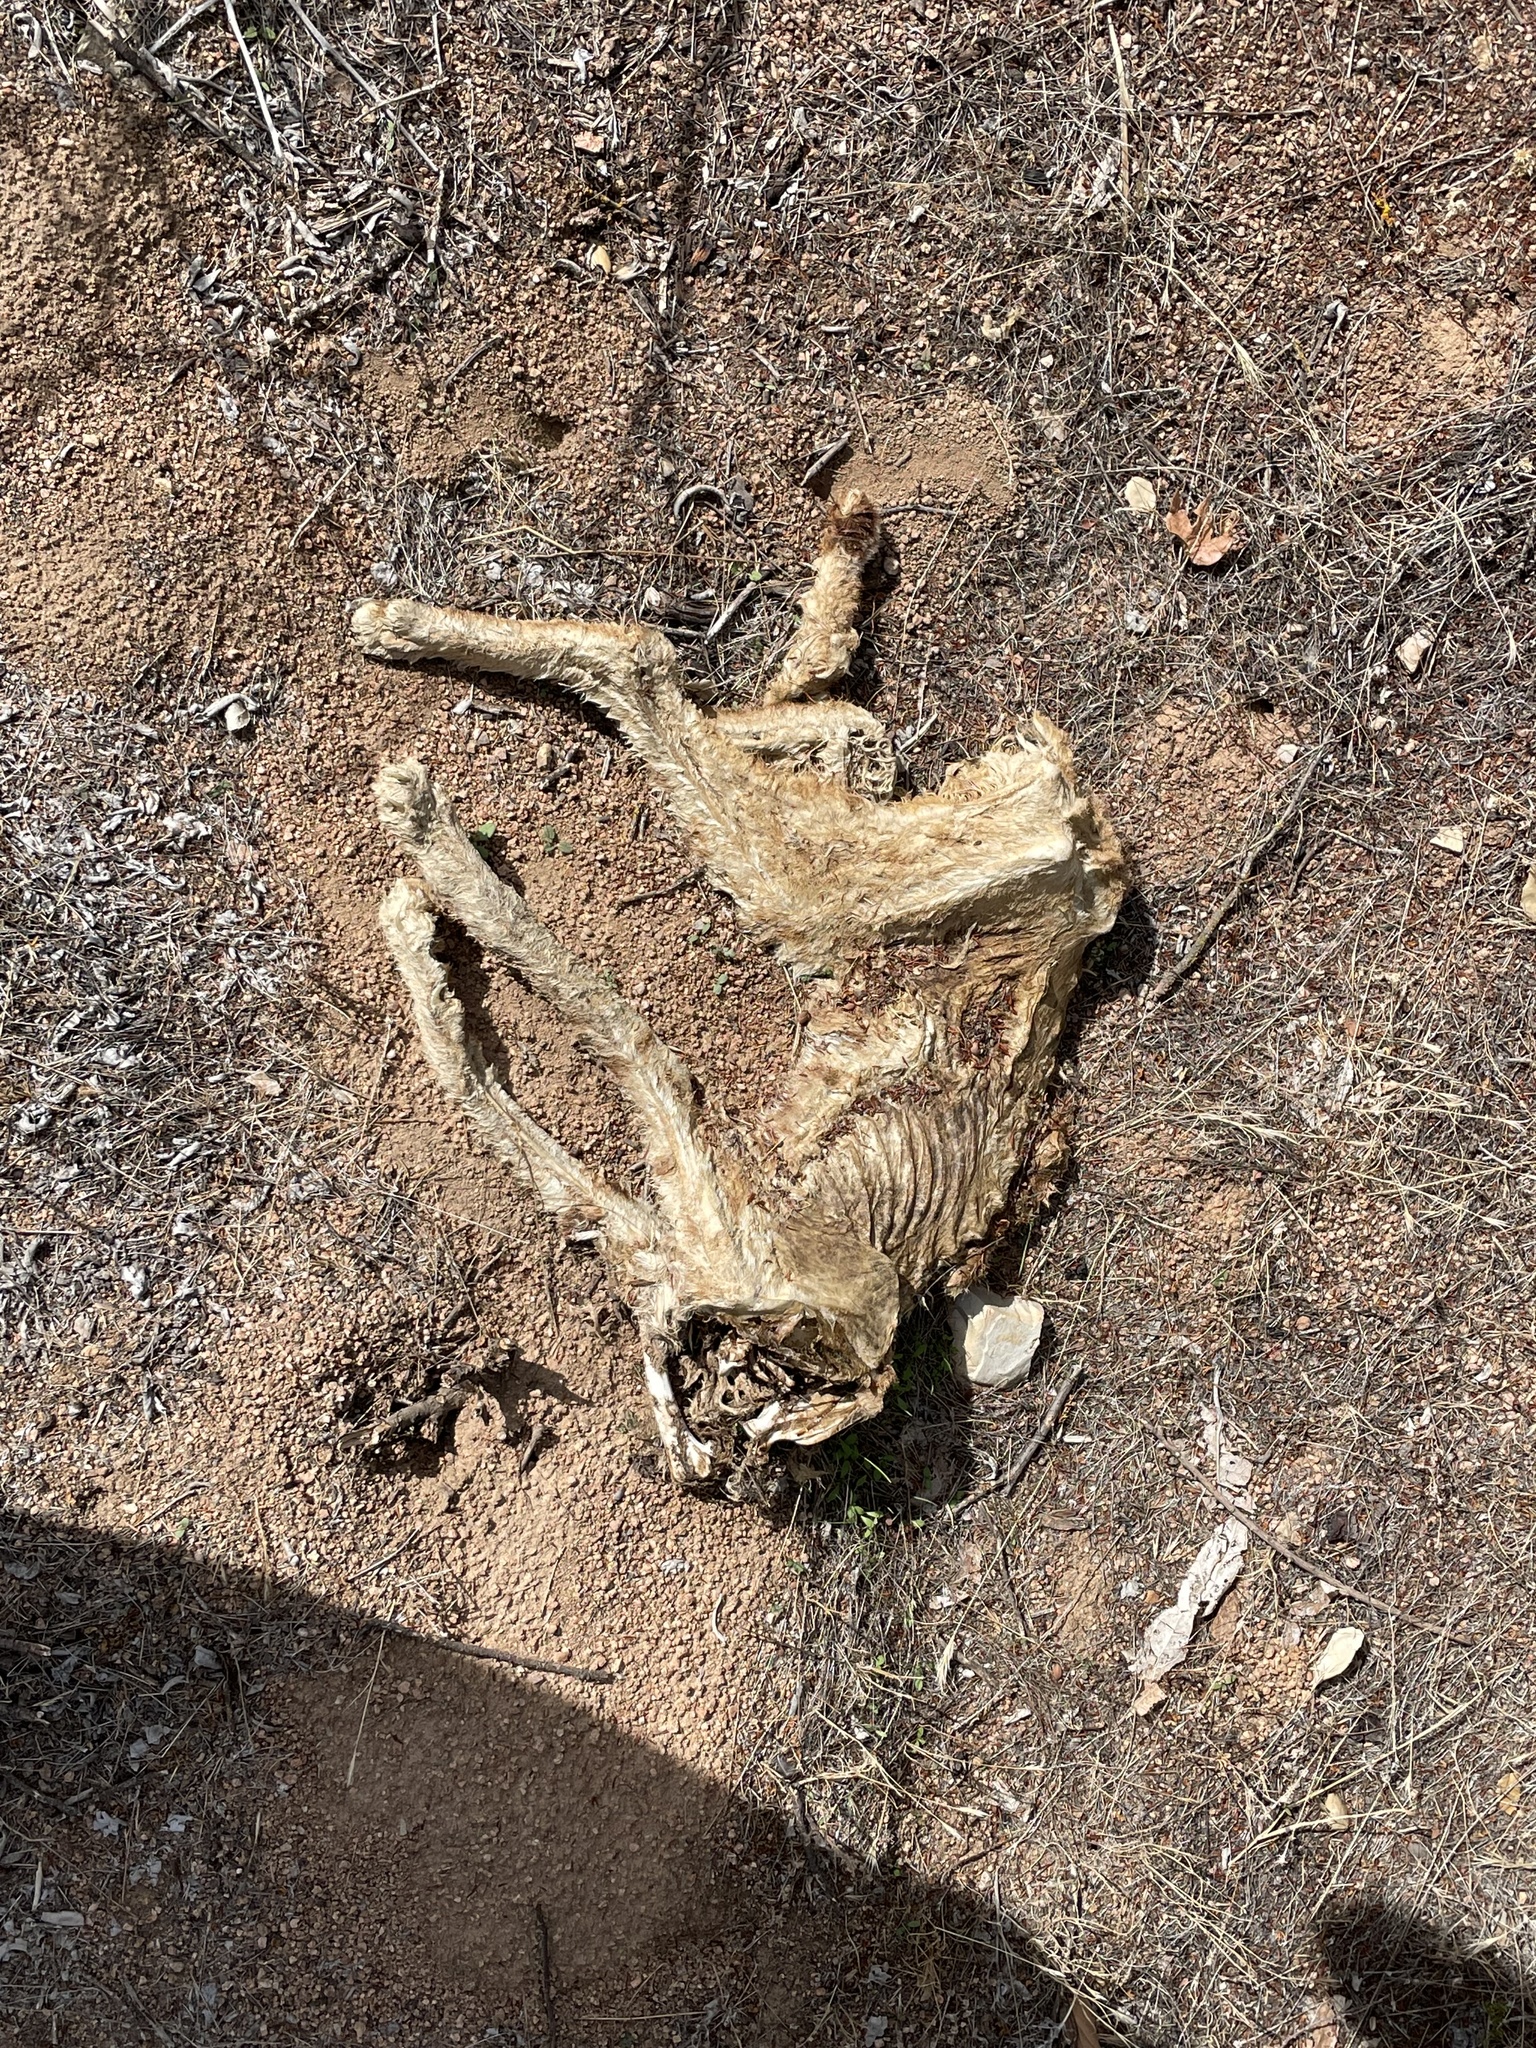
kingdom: Animalia
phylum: Chordata
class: Mammalia
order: Carnivora
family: Felidae
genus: Lynx
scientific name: Lynx rufus
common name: Bobcat
